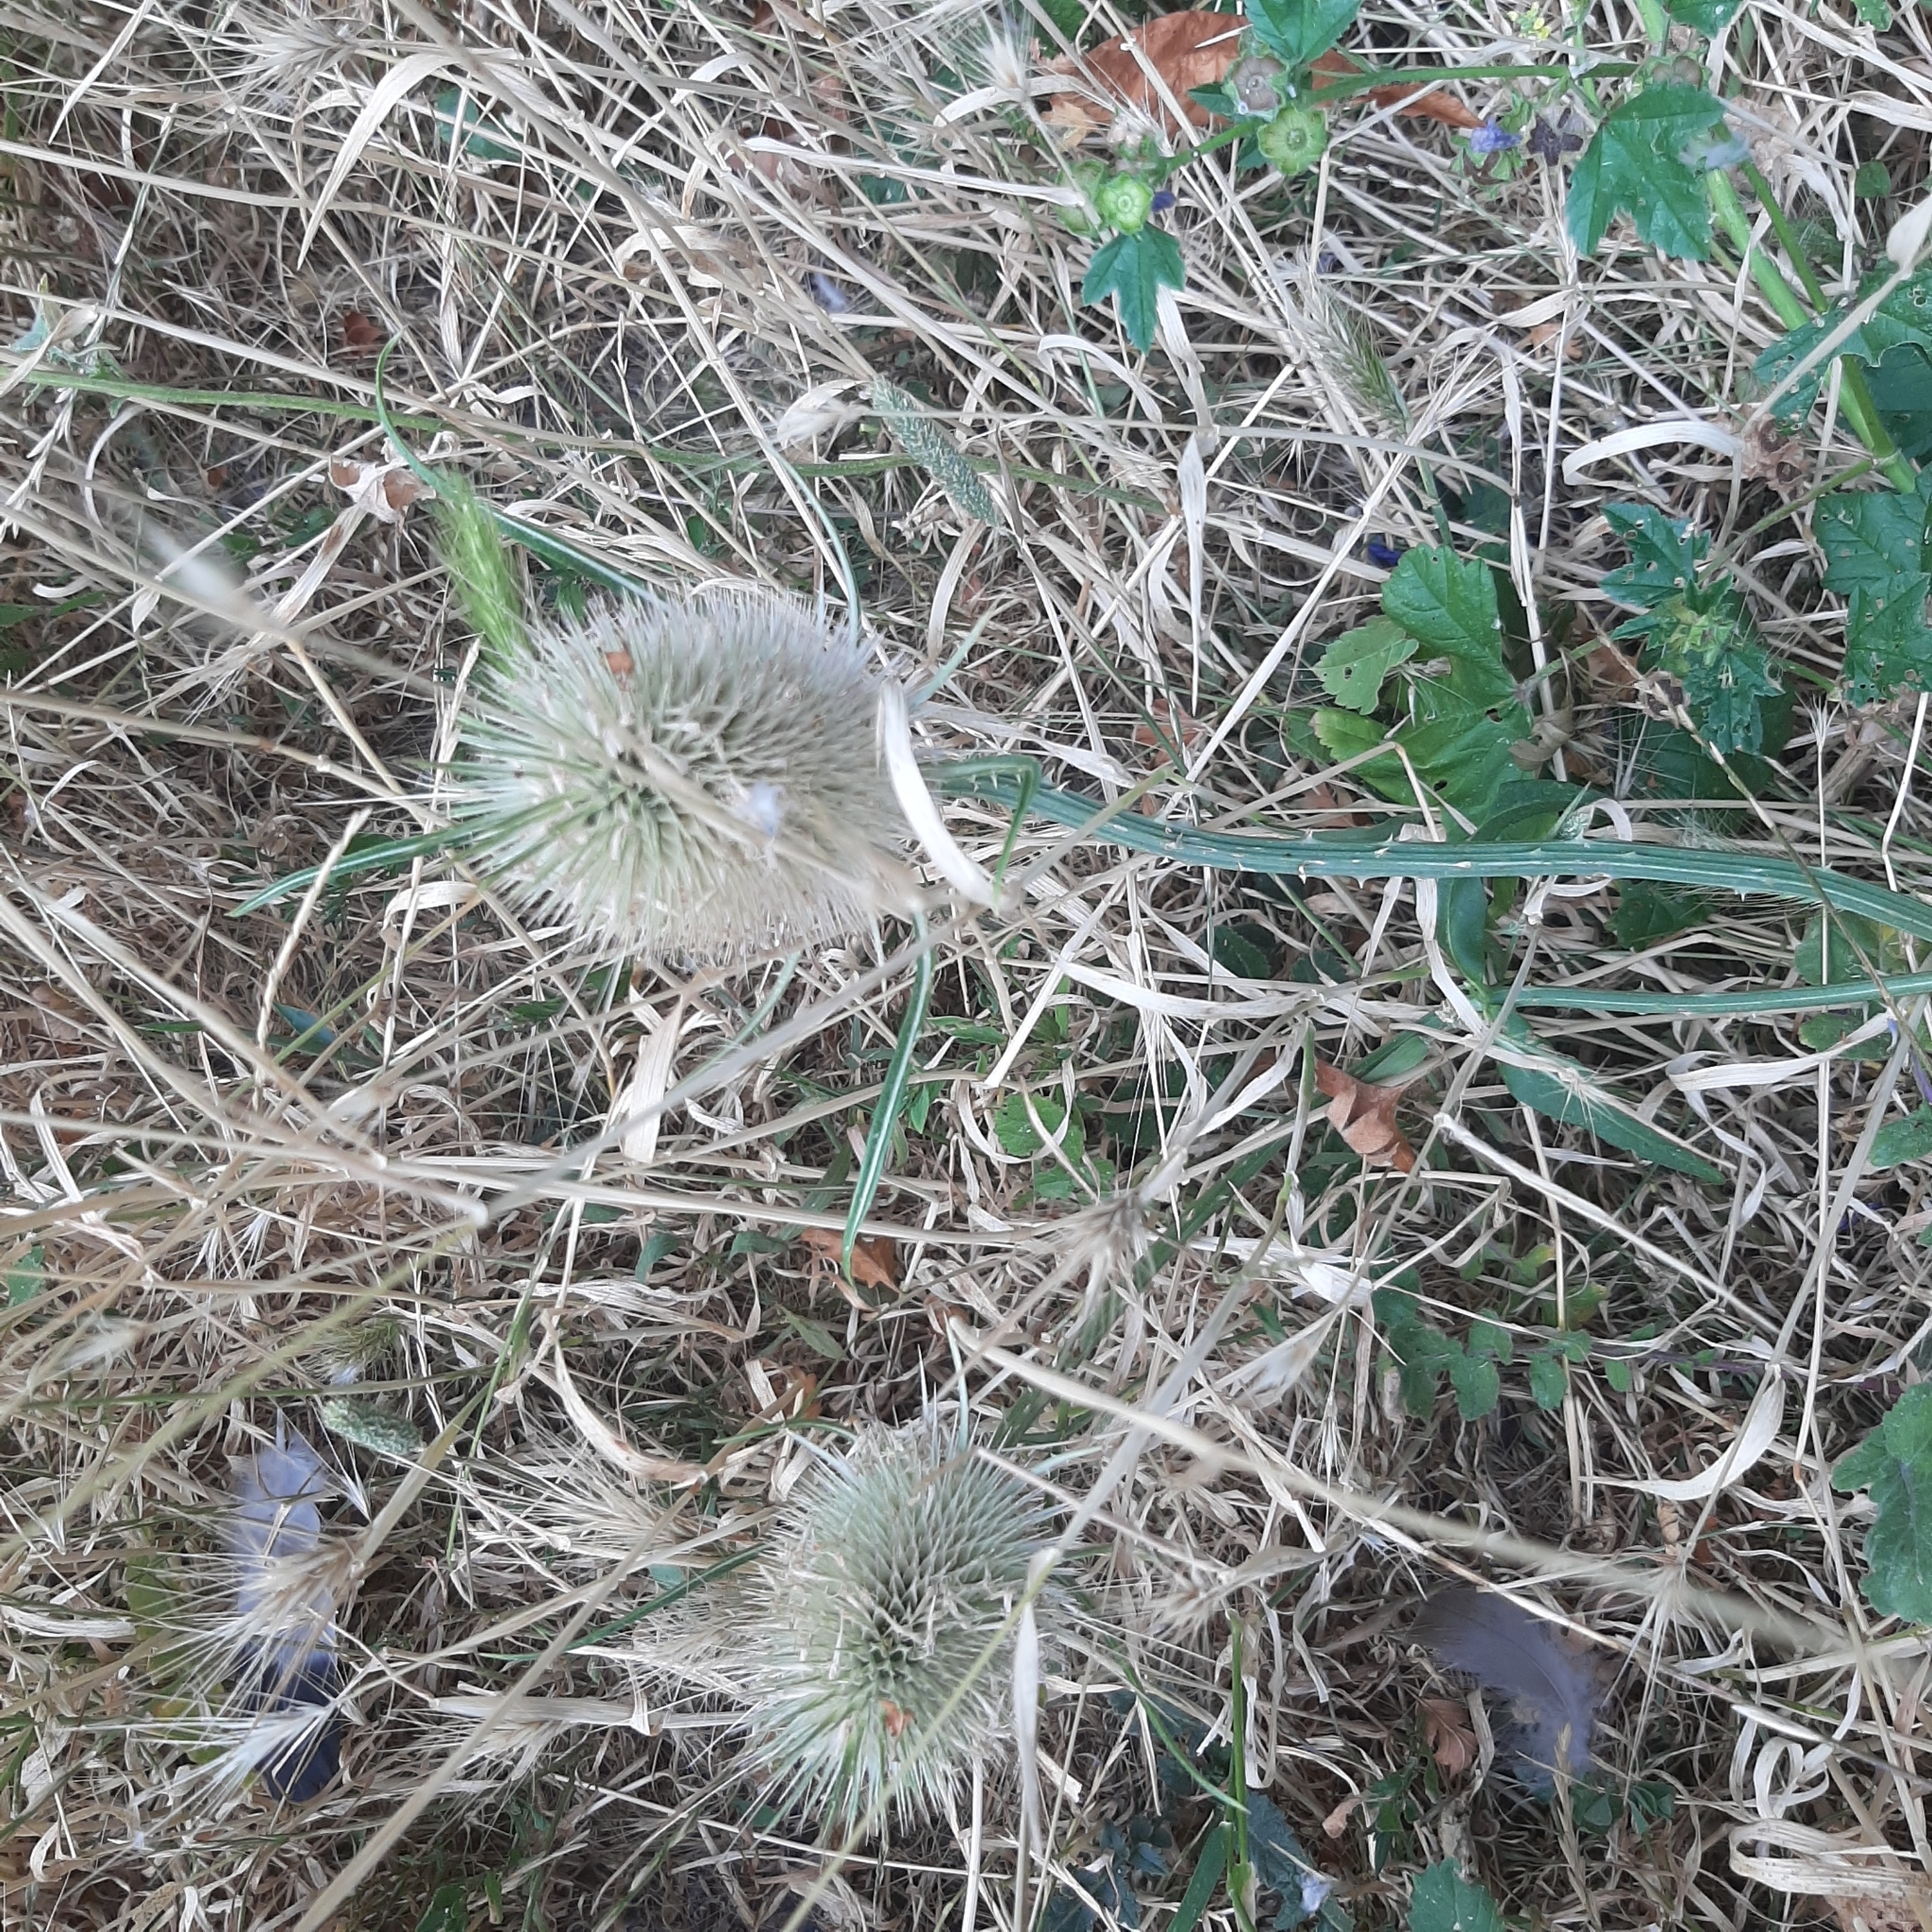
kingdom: Plantae
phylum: Tracheophyta
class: Magnoliopsida
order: Dipsacales
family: Caprifoliaceae
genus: Dipsacus
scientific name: Dipsacus fullonum
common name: Teasel
